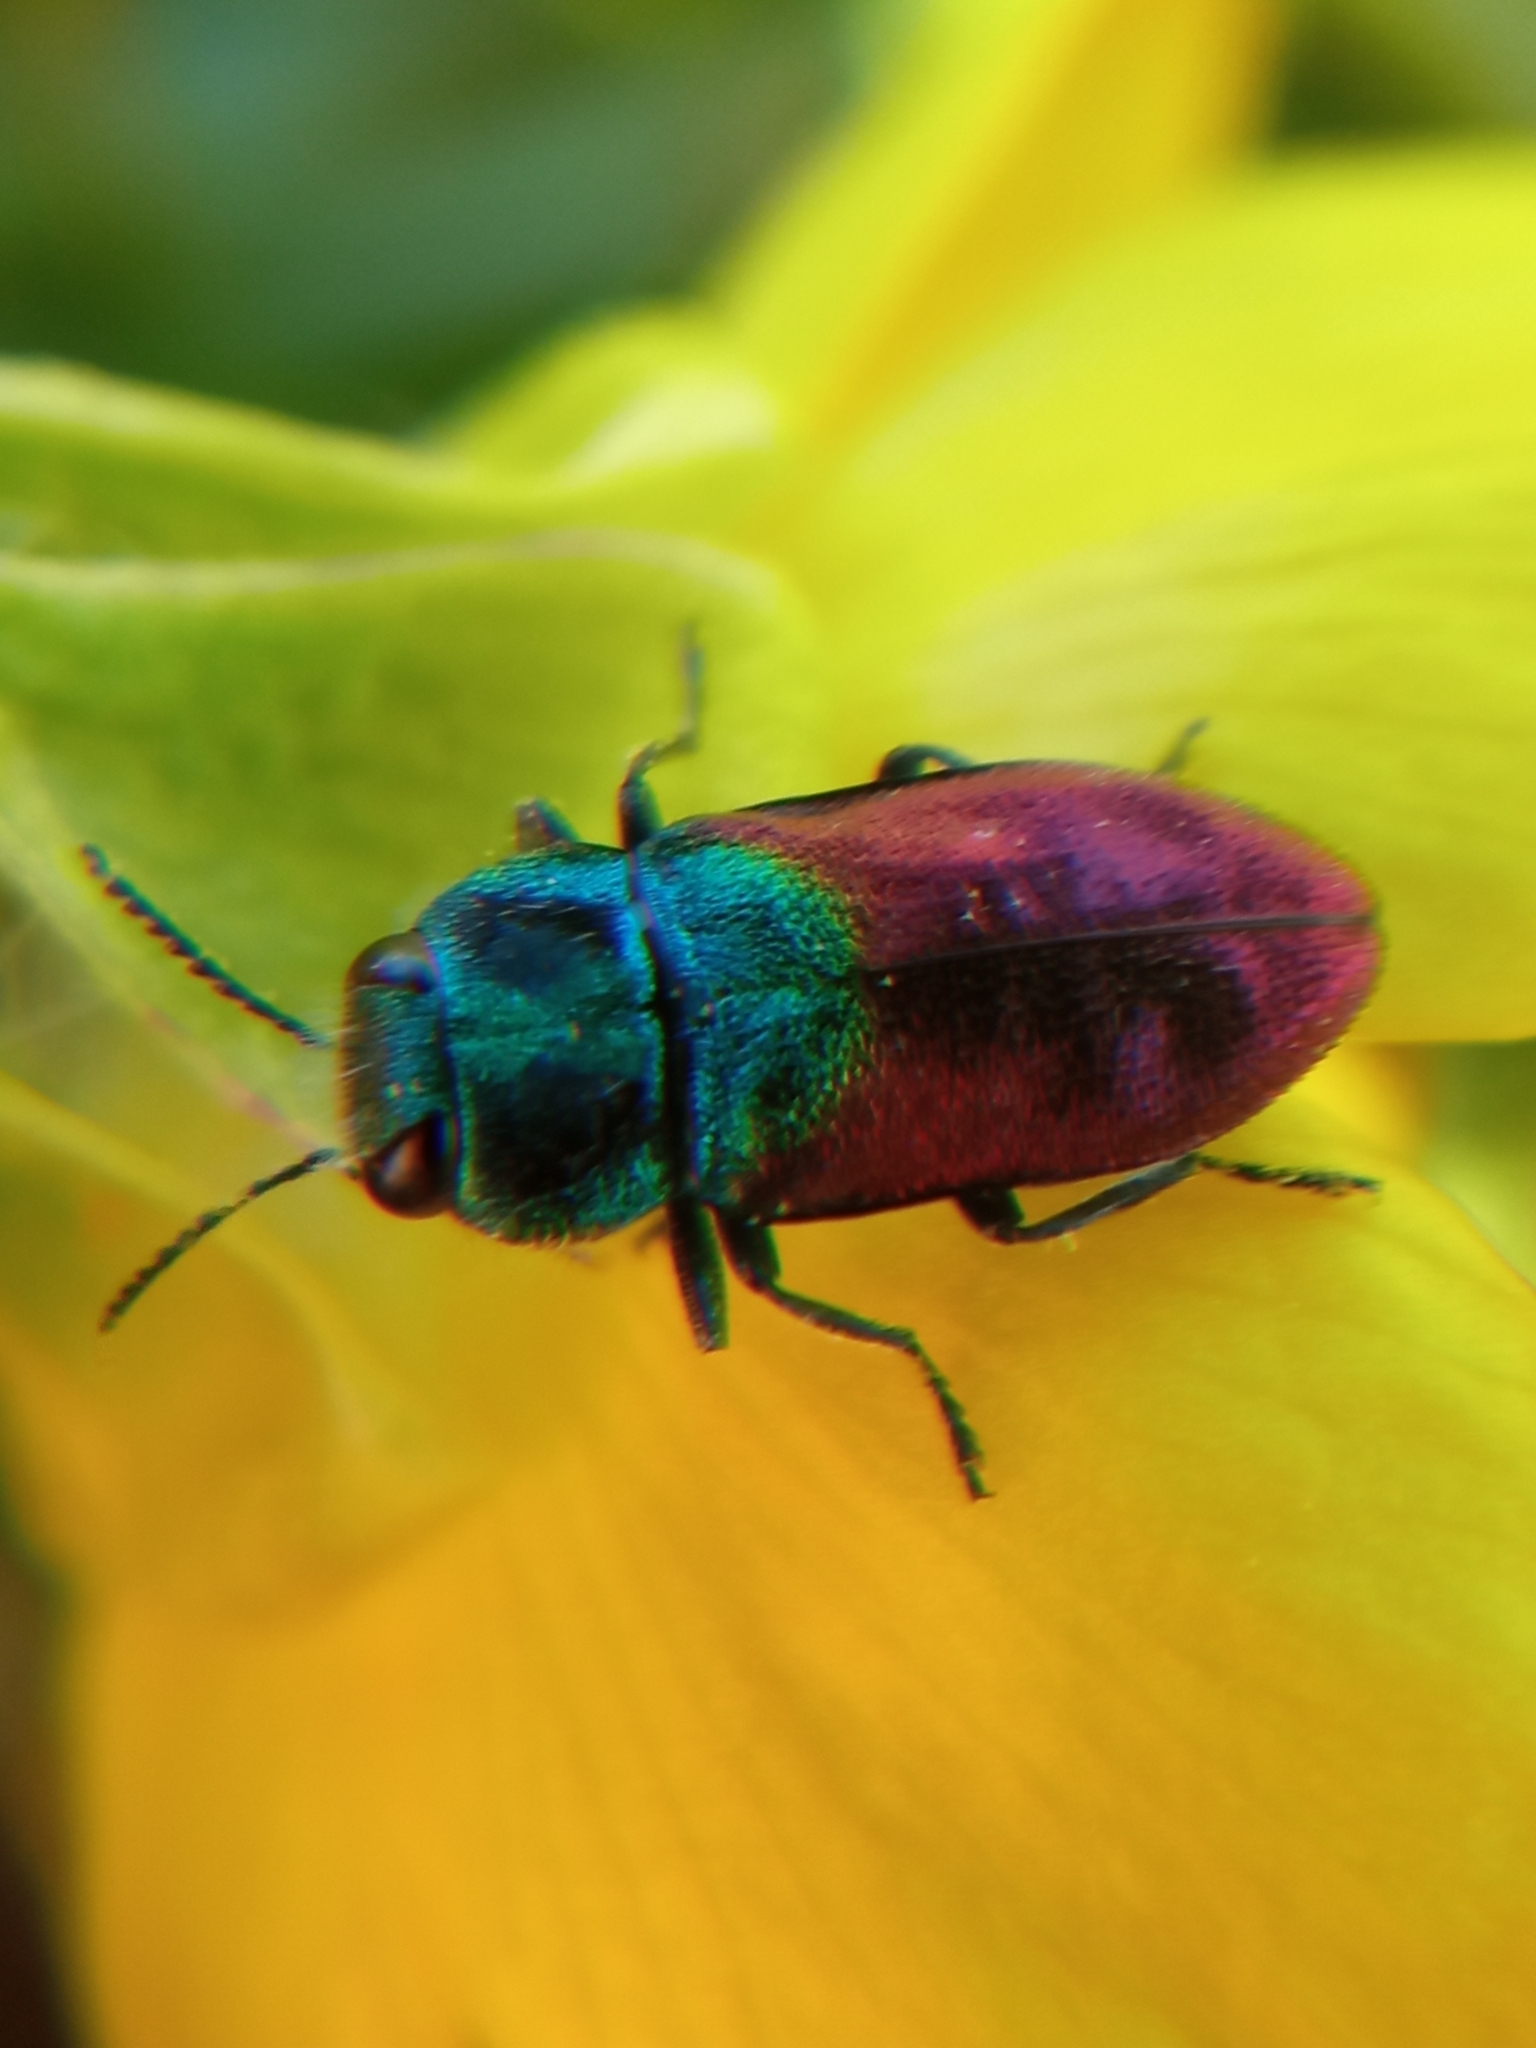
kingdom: Animalia
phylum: Arthropoda
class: Insecta
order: Coleoptera
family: Buprestidae
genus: Anthaxia
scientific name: Anthaxia salicis
